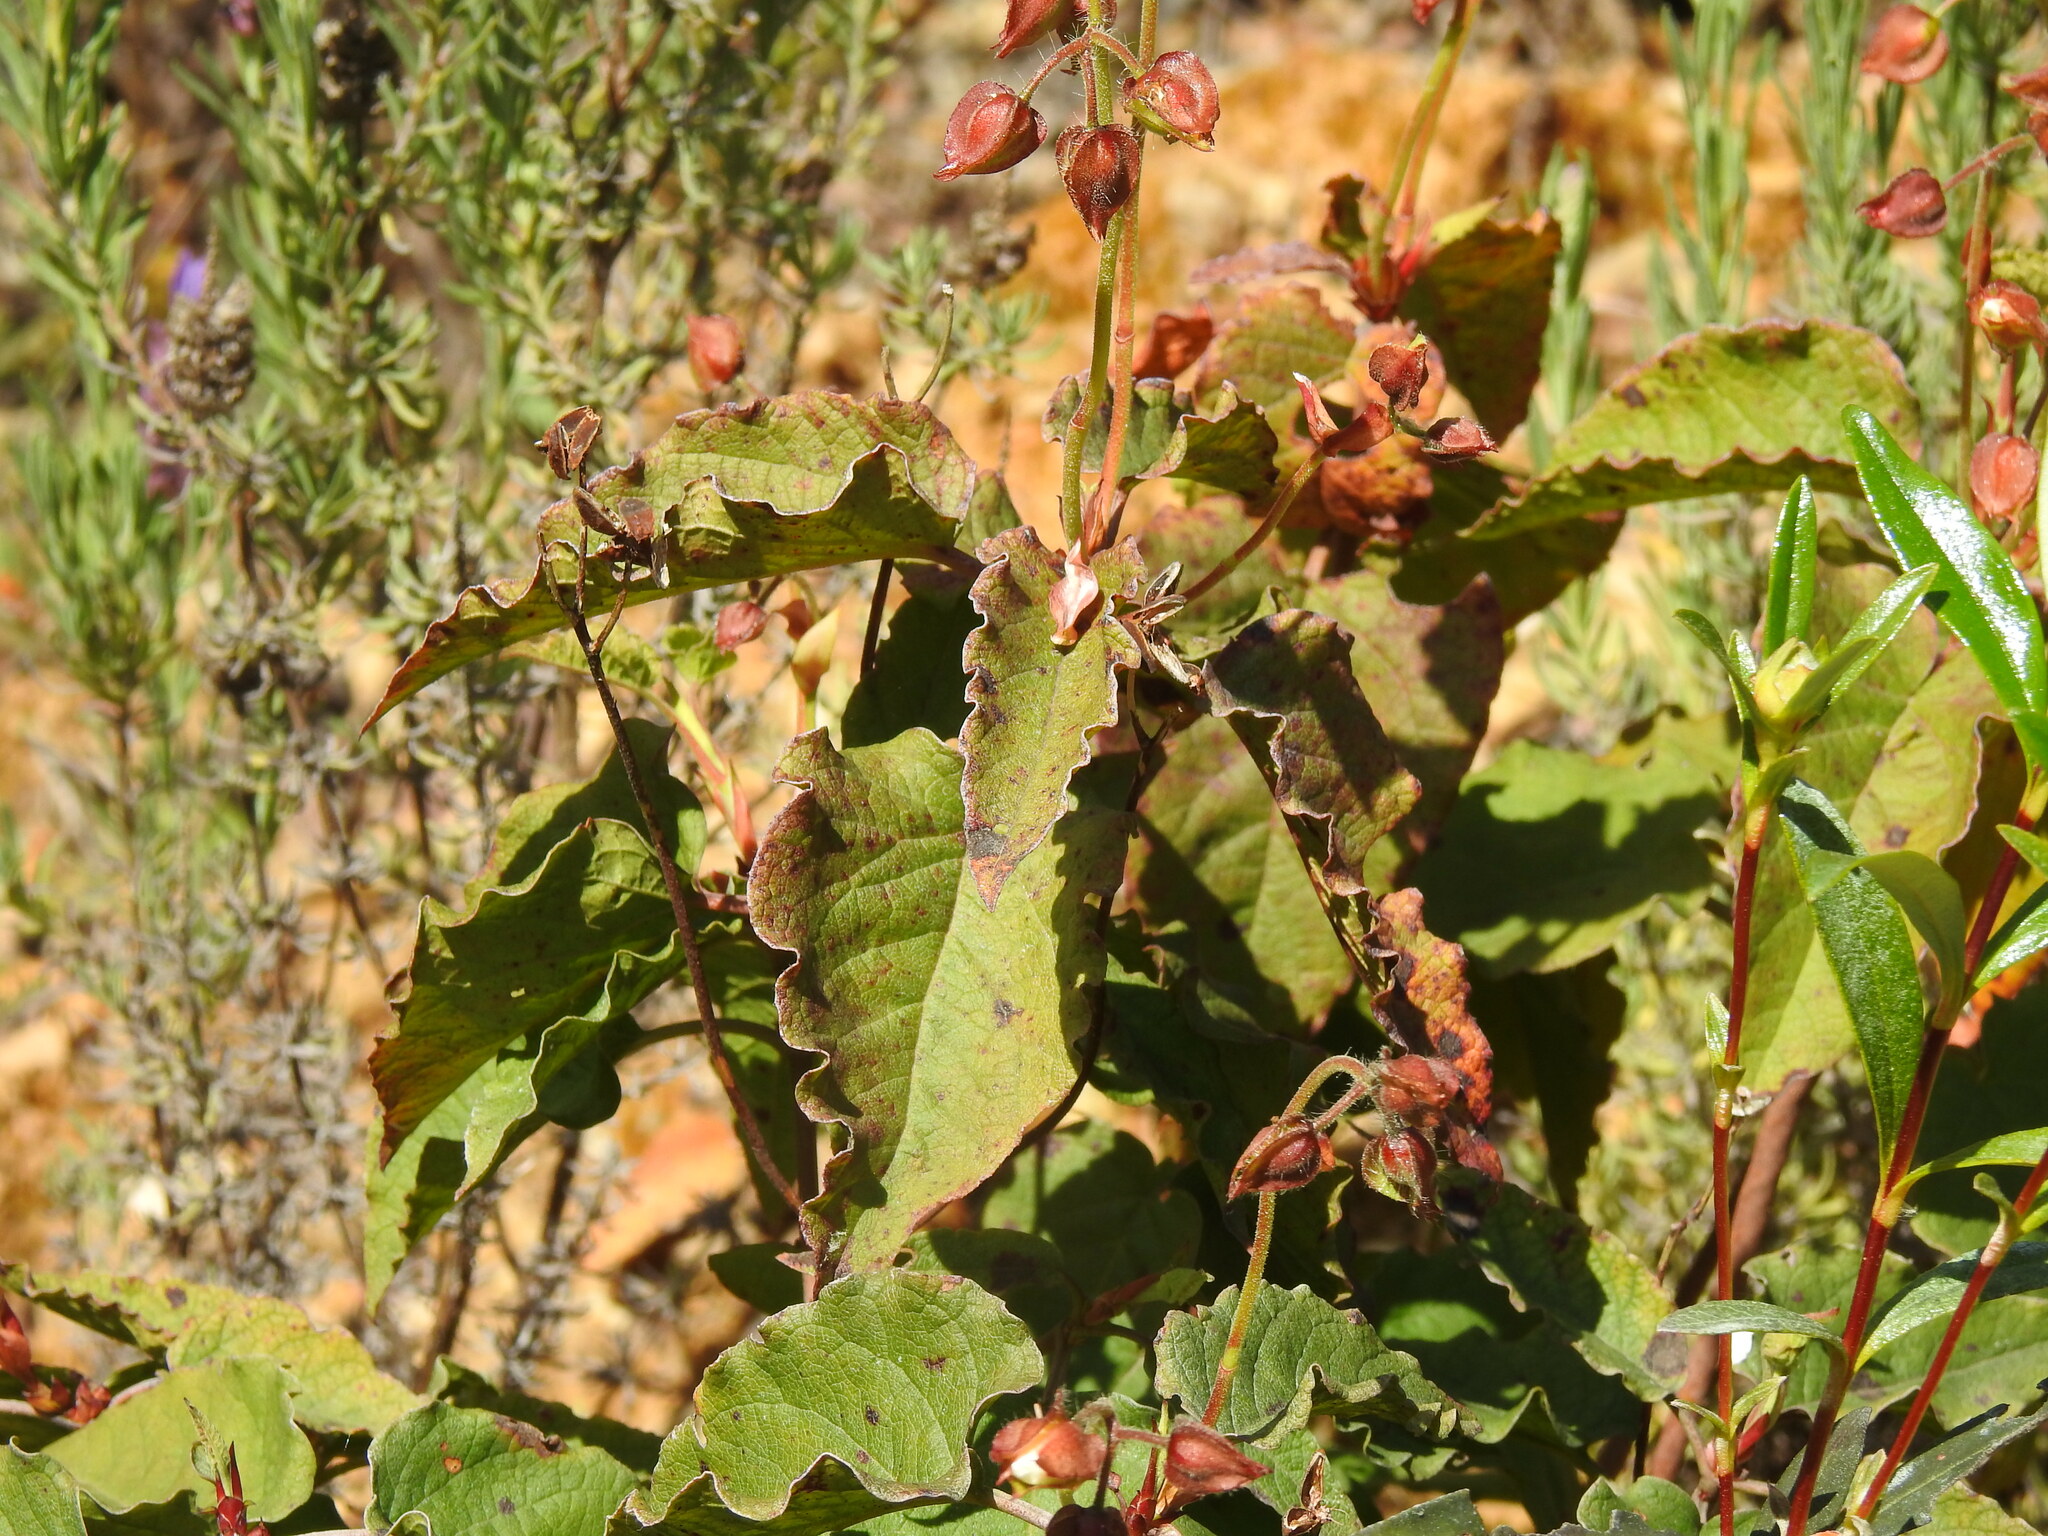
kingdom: Plantae
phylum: Tracheophyta
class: Magnoliopsida
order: Malvales
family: Cistaceae
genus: Cistus
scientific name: Cistus populifolius
